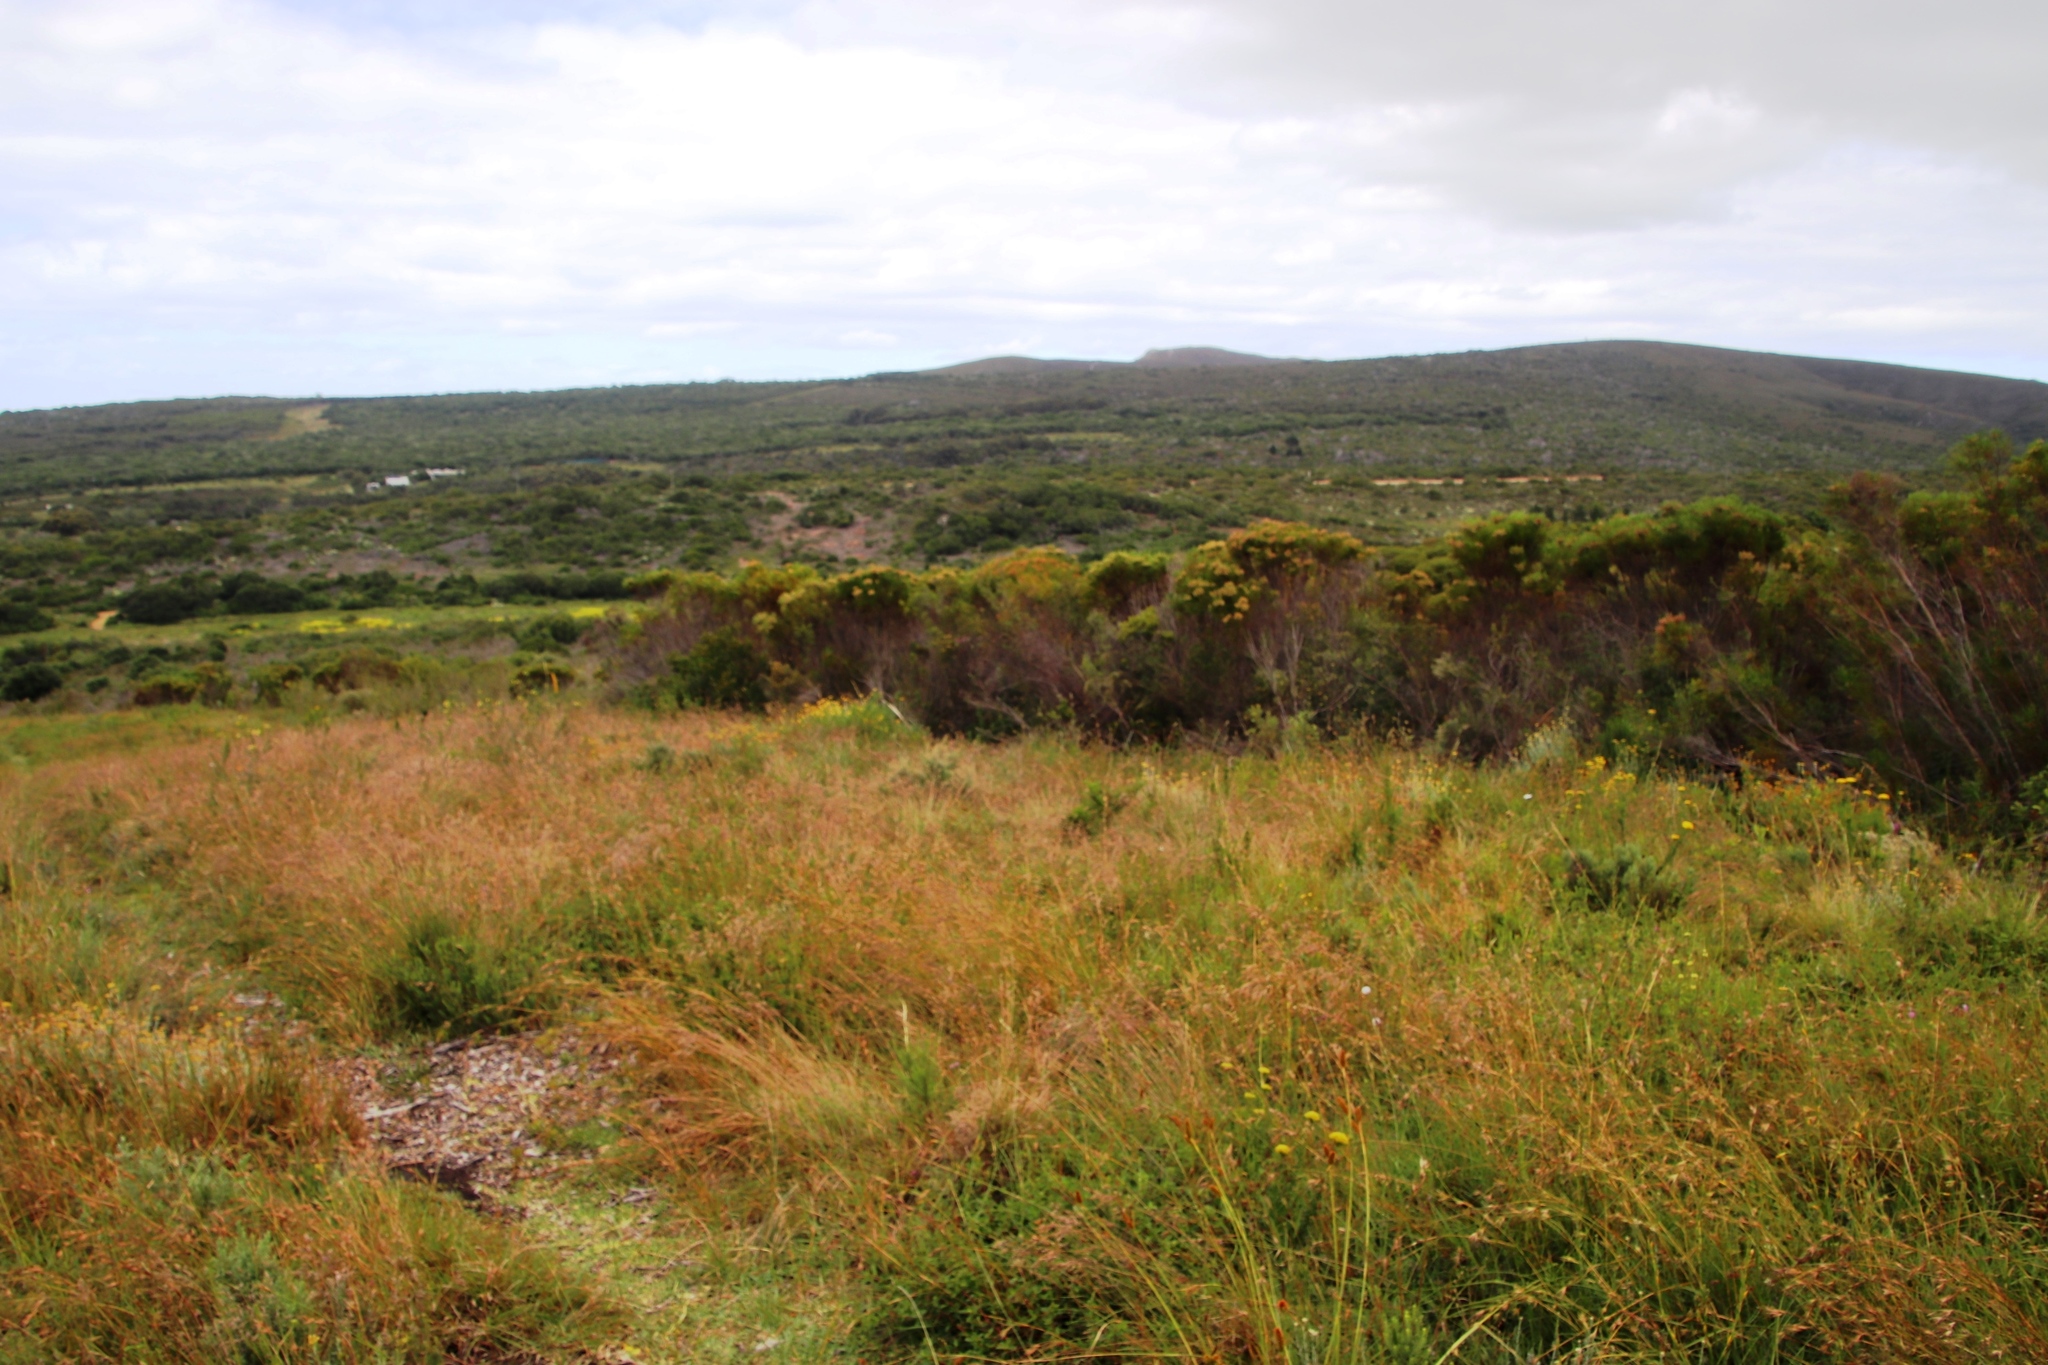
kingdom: Plantae
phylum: Tracheophyta
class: Liliopsida
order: Poales
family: Poaceae
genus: Themeda
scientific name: Themeda triandra
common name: Kangaroo grass
